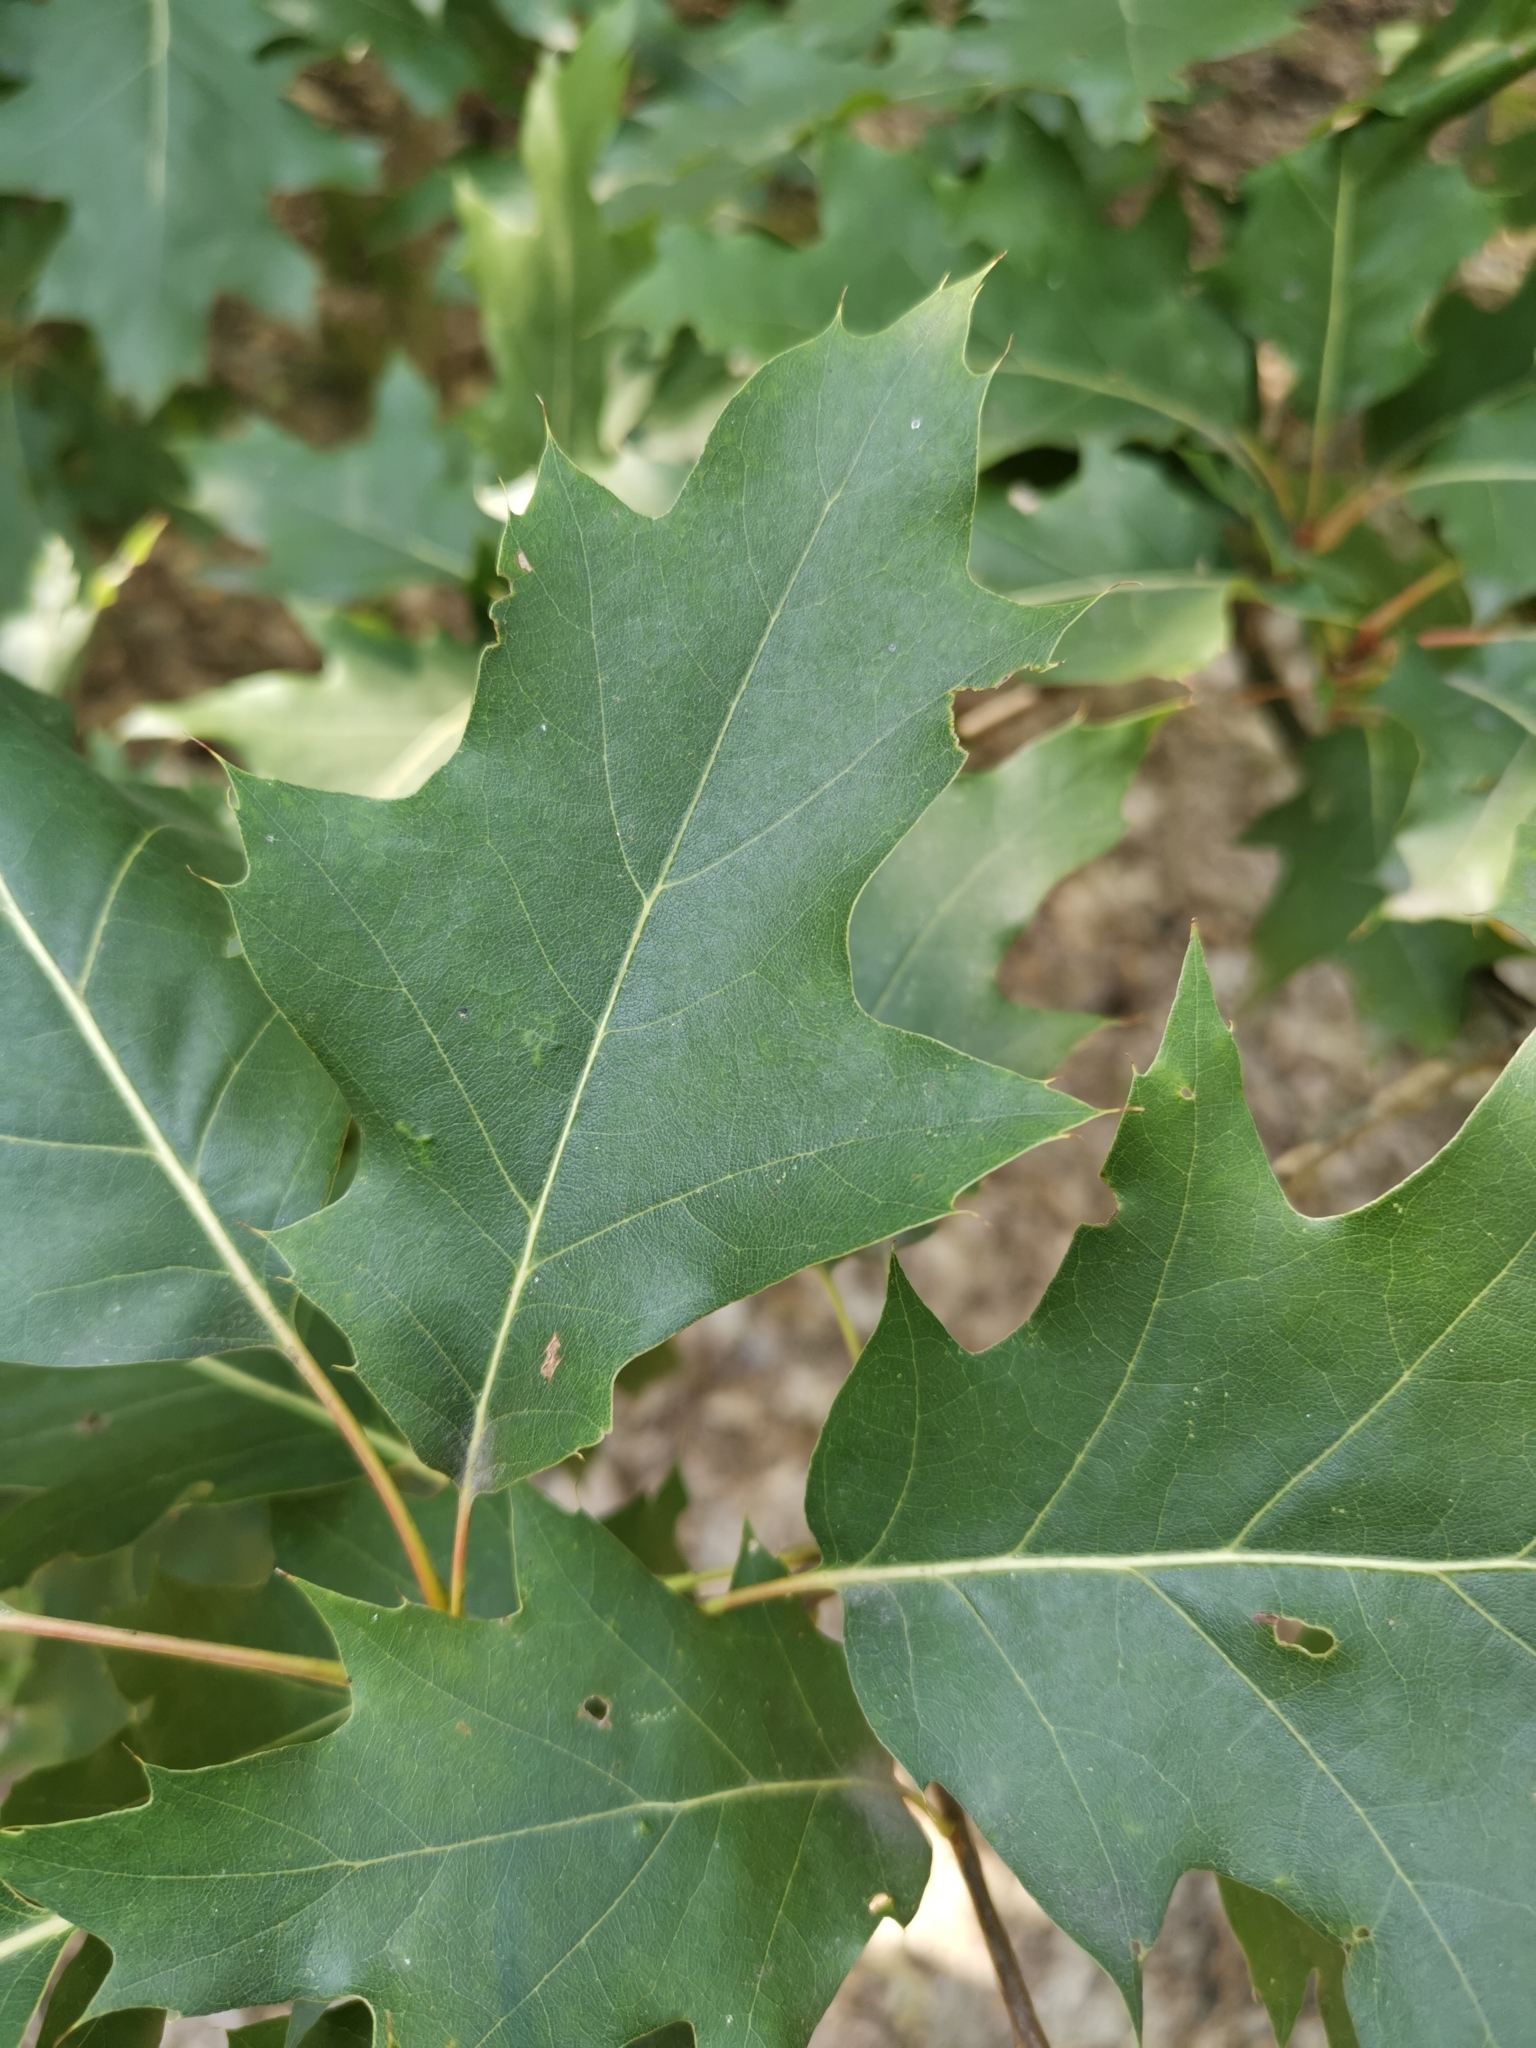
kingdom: Plantae
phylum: Tracheophyta
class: Magnoliopsida
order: Fagales
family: Fagaceae
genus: Quercus
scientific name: Quercus rubra
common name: Red oak
